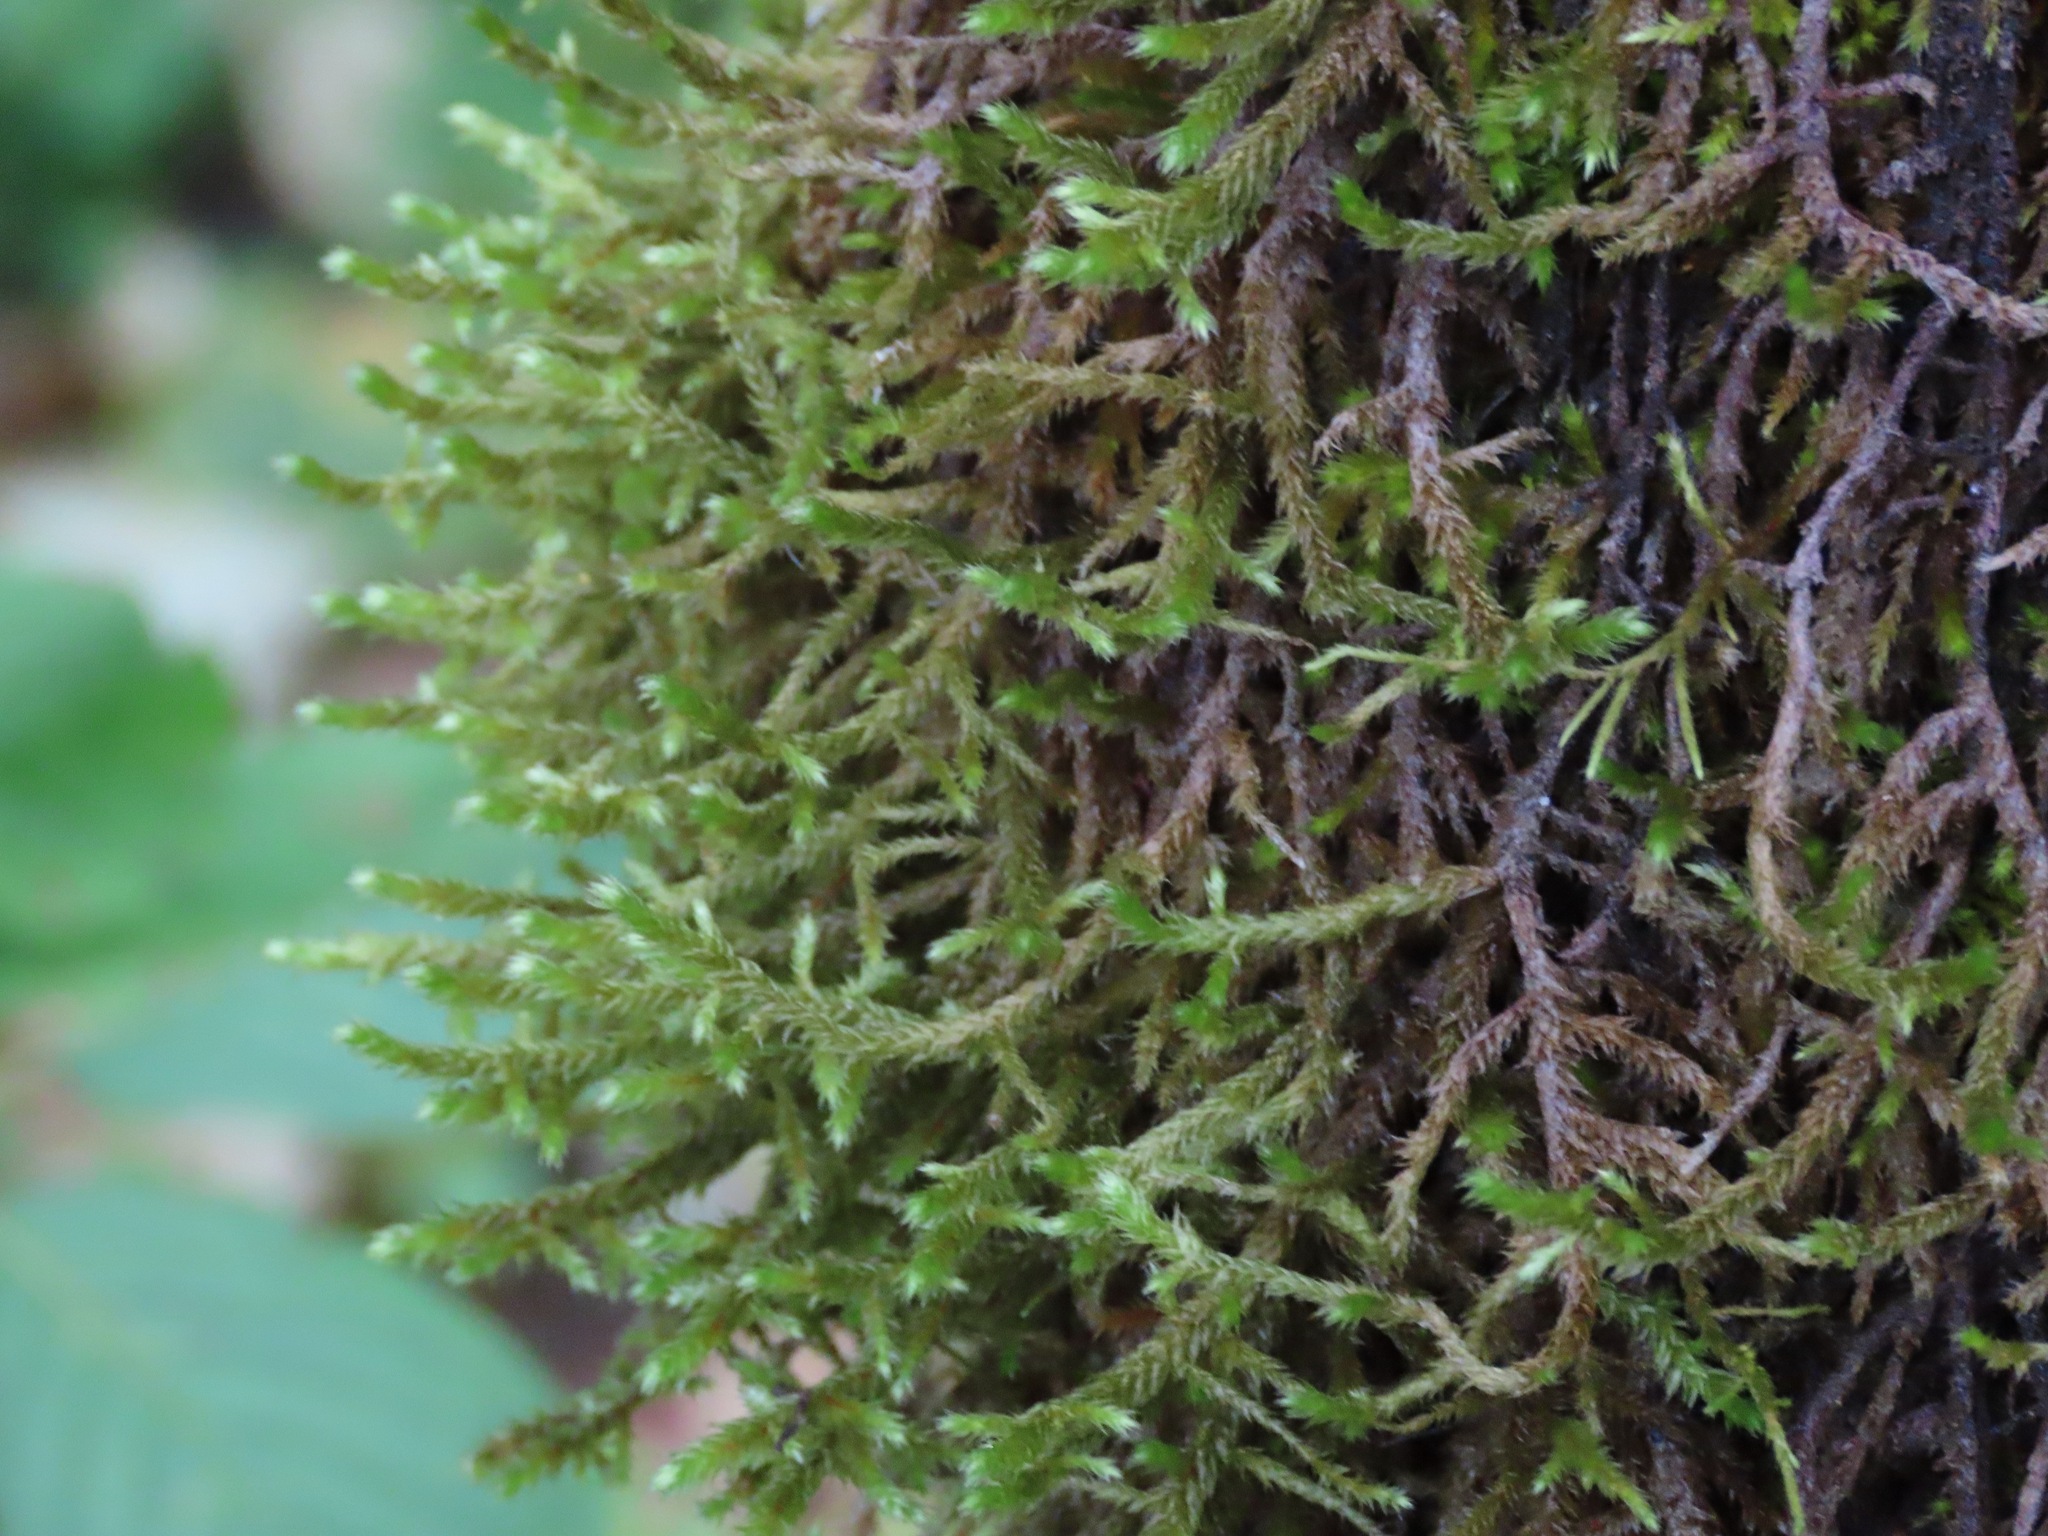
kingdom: Plantae
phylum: Bryophyta
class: Bryopsida
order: Hypnales
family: Antitrichiaceae
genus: Antitrichia
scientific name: Antitrichia curtipendula
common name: Pendulous wing-moss
